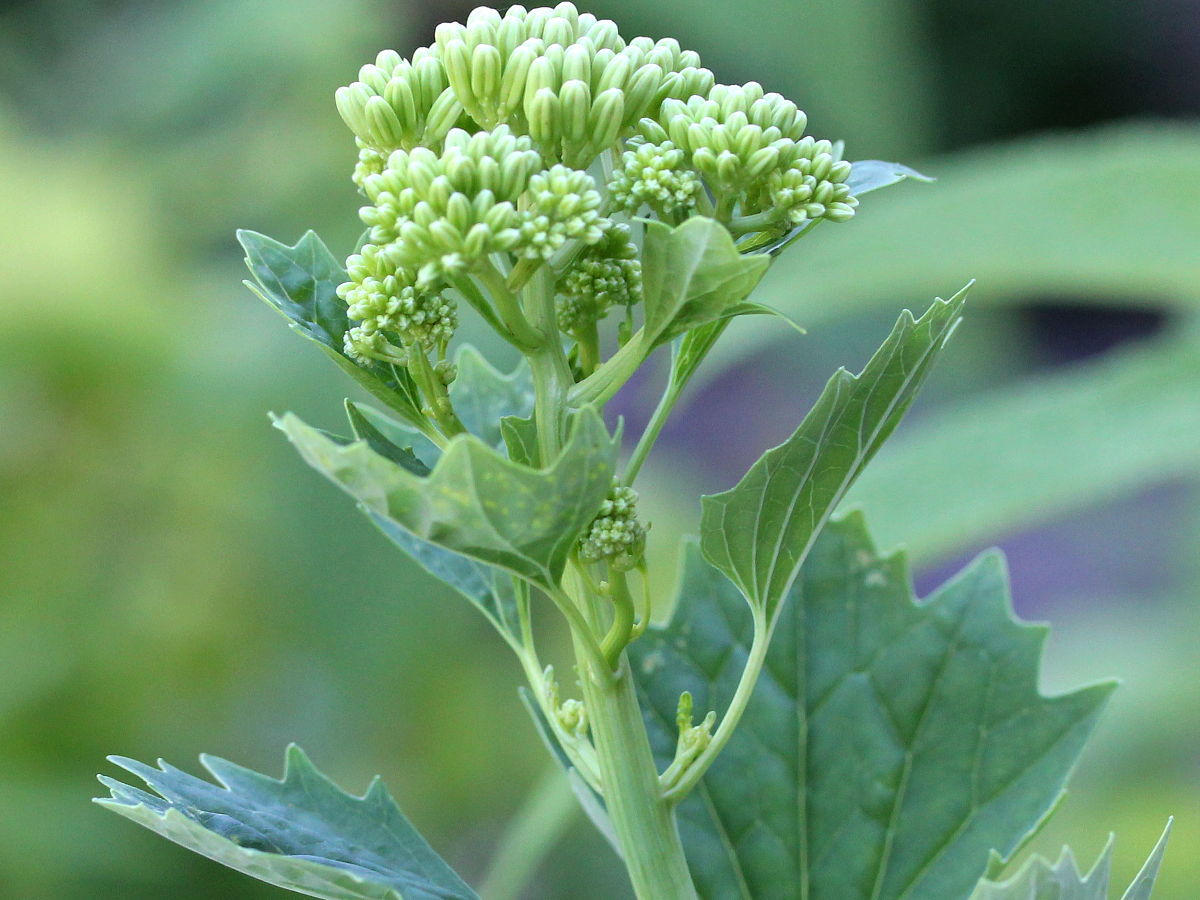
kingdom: Plantae
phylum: Tracheophyta
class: Magnoliopsida
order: Asterales
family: Asteraceae
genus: Arnoglossum
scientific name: Arnoglossum atriplicifolium
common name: Pale indian-plantain
